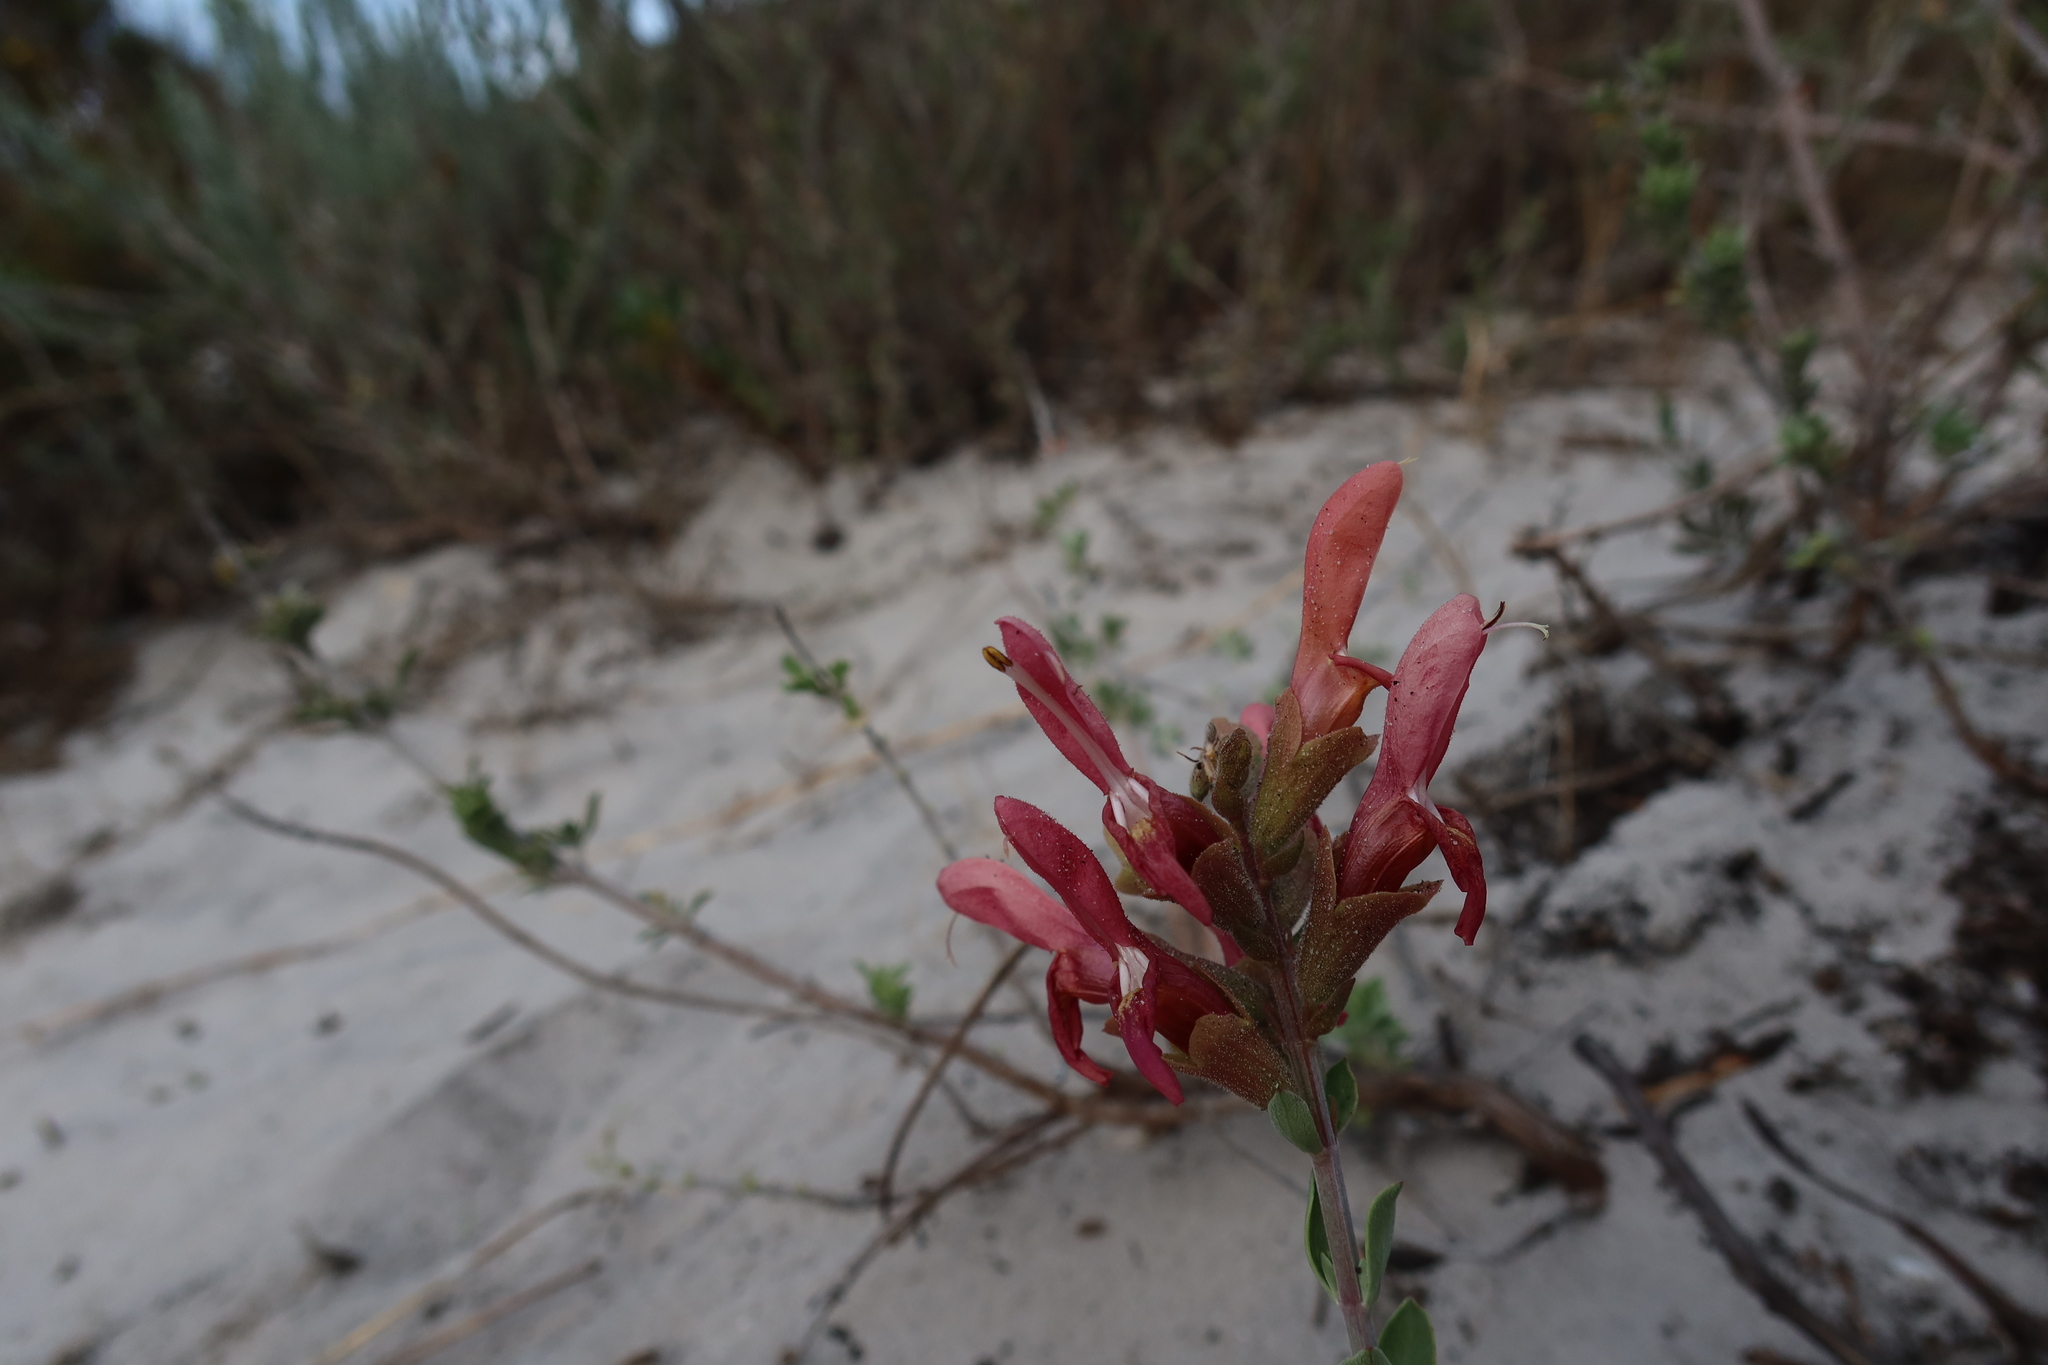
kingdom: Plantae
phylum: Tracheophyta
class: Magnoliopsida
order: Lamiales
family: Lamiaceae
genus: Salvia
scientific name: Salvia lanceolata
